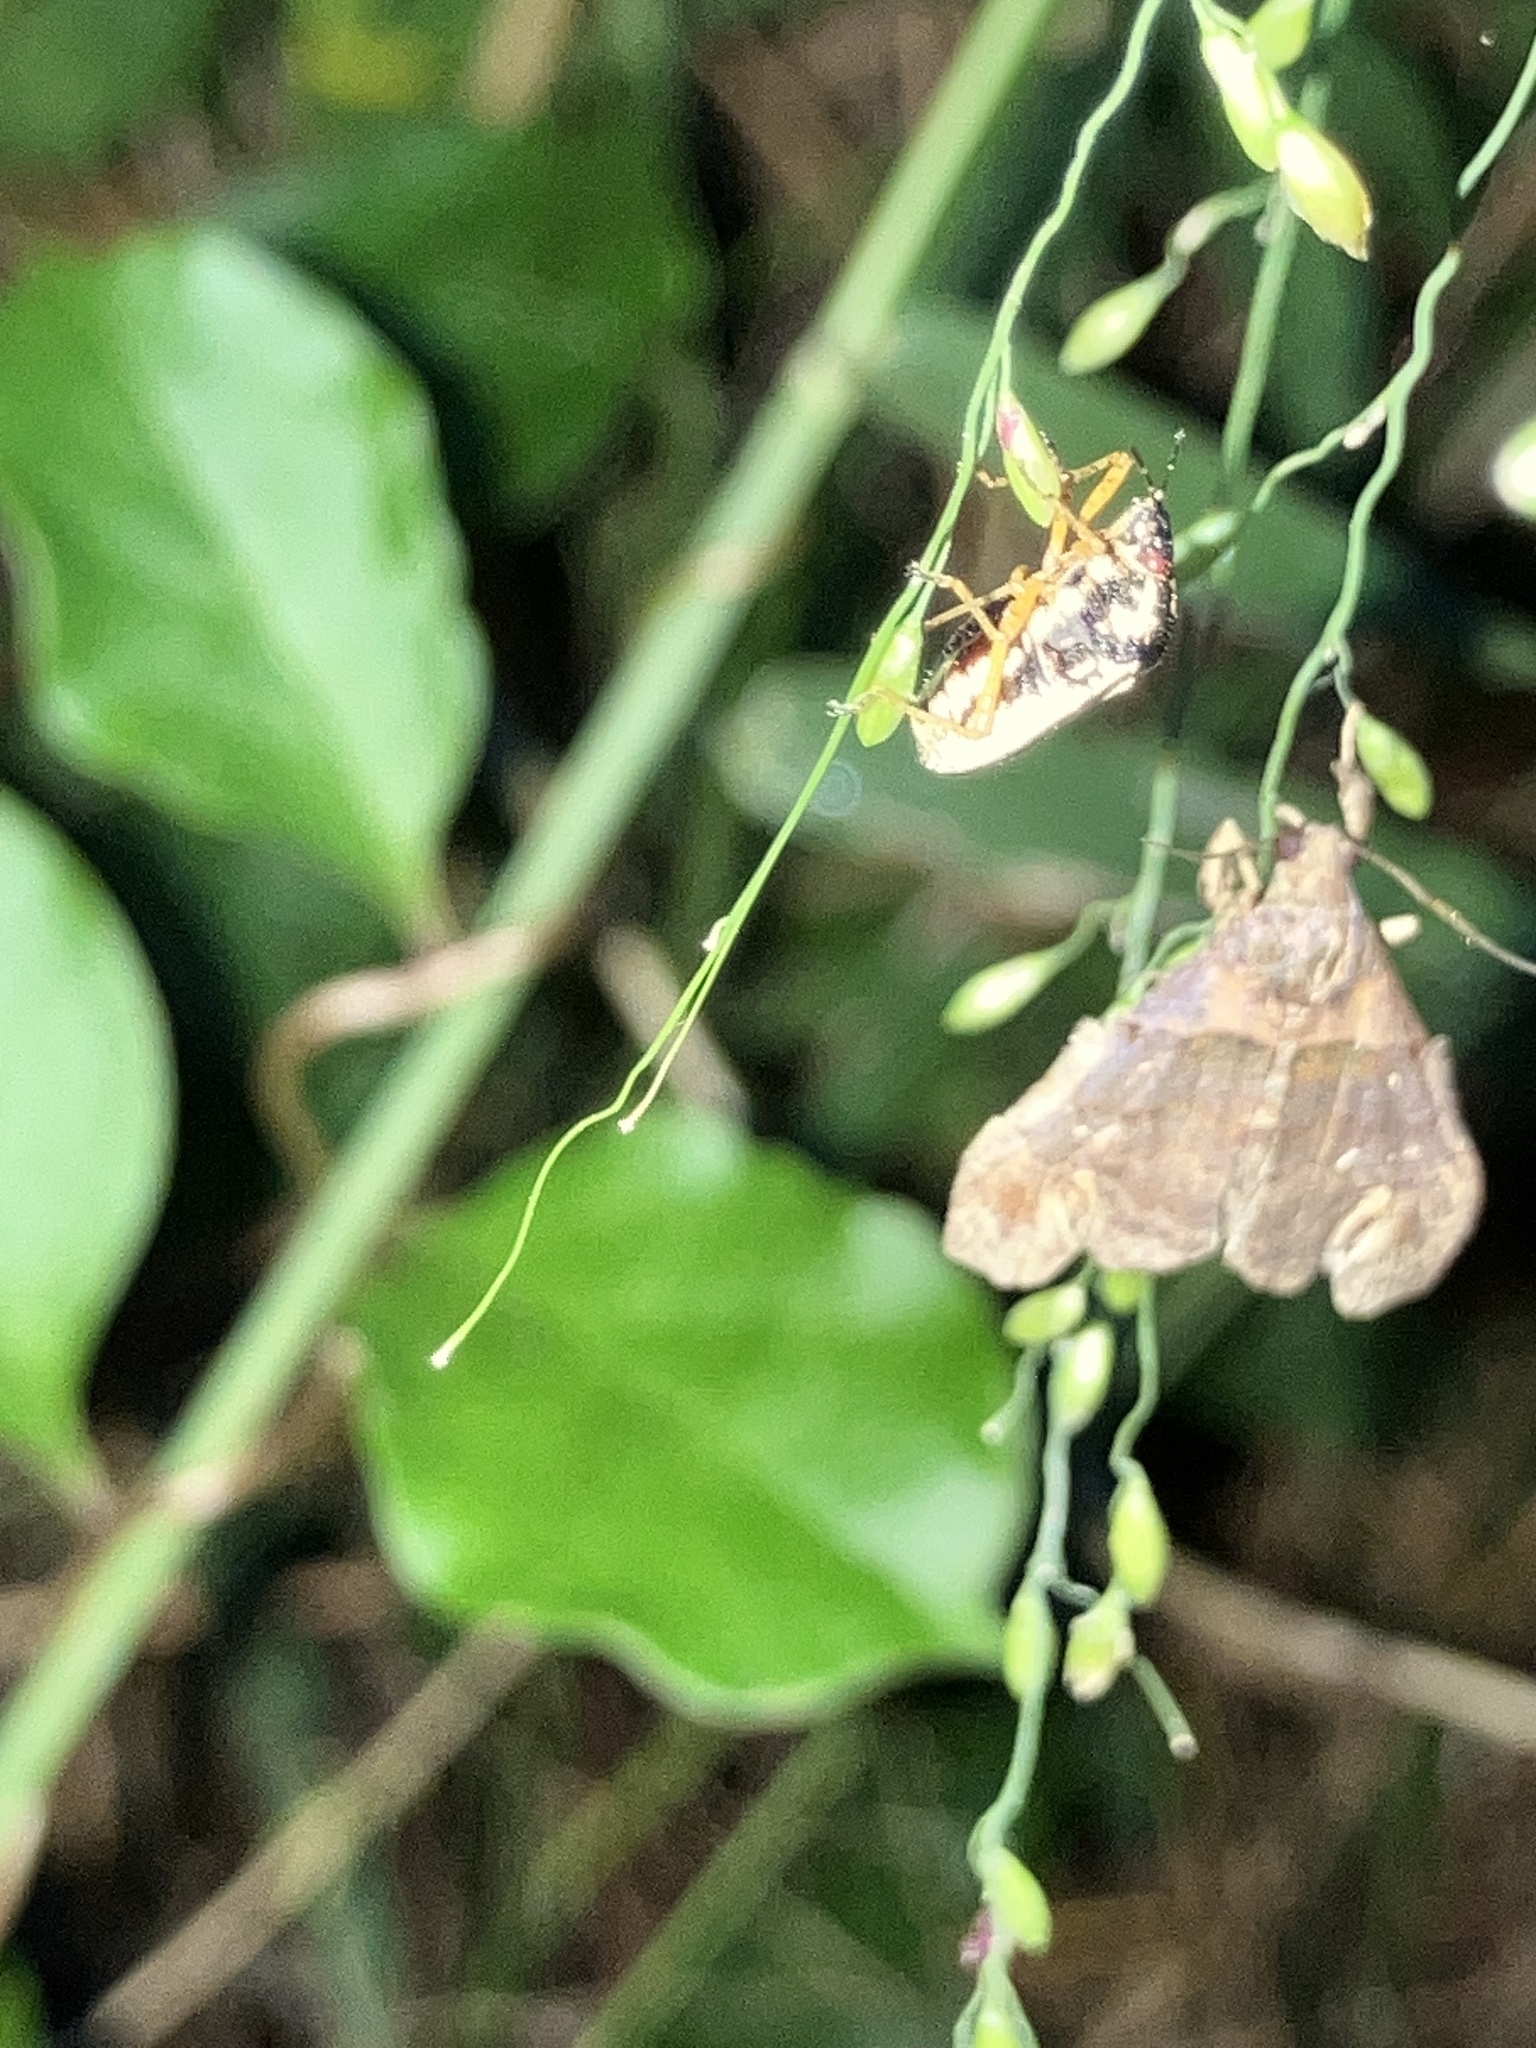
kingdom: Animalia
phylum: Arthropoda
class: Insecta
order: Lepidoptera
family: Erebidae
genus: Lascoria
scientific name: Lascoria ambigualis
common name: Ambiguous moth
